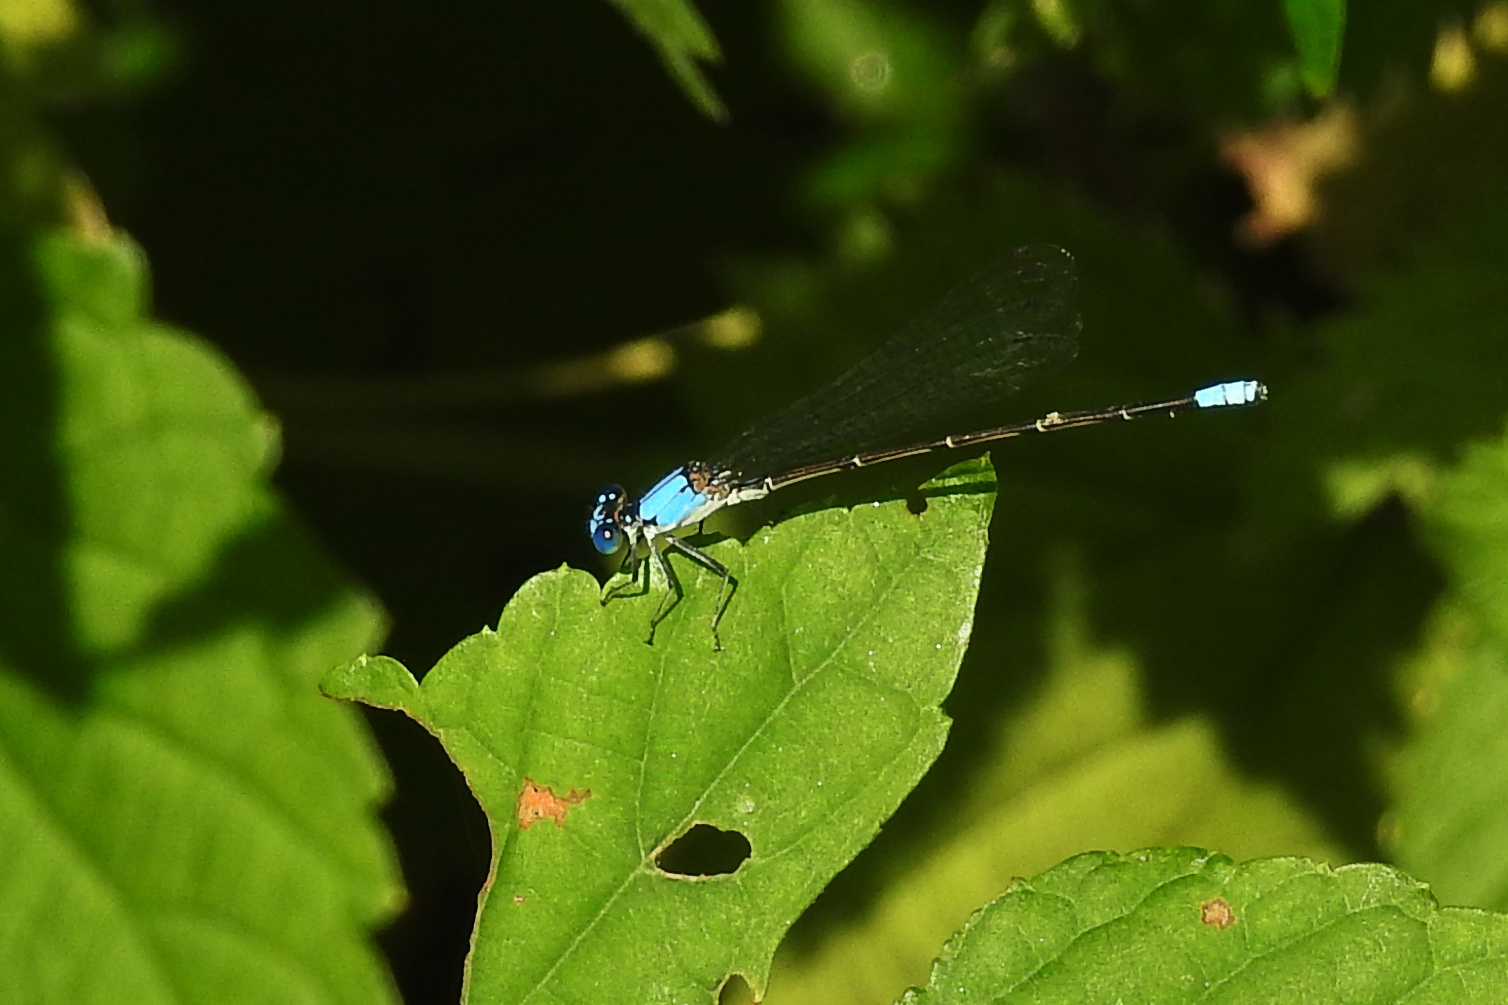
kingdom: Animalia
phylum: Arthropoda
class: Insecta
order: Odonata
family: Coenagrionidae
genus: Argia
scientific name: Argia apicalis
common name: Blue-fronted dancer
